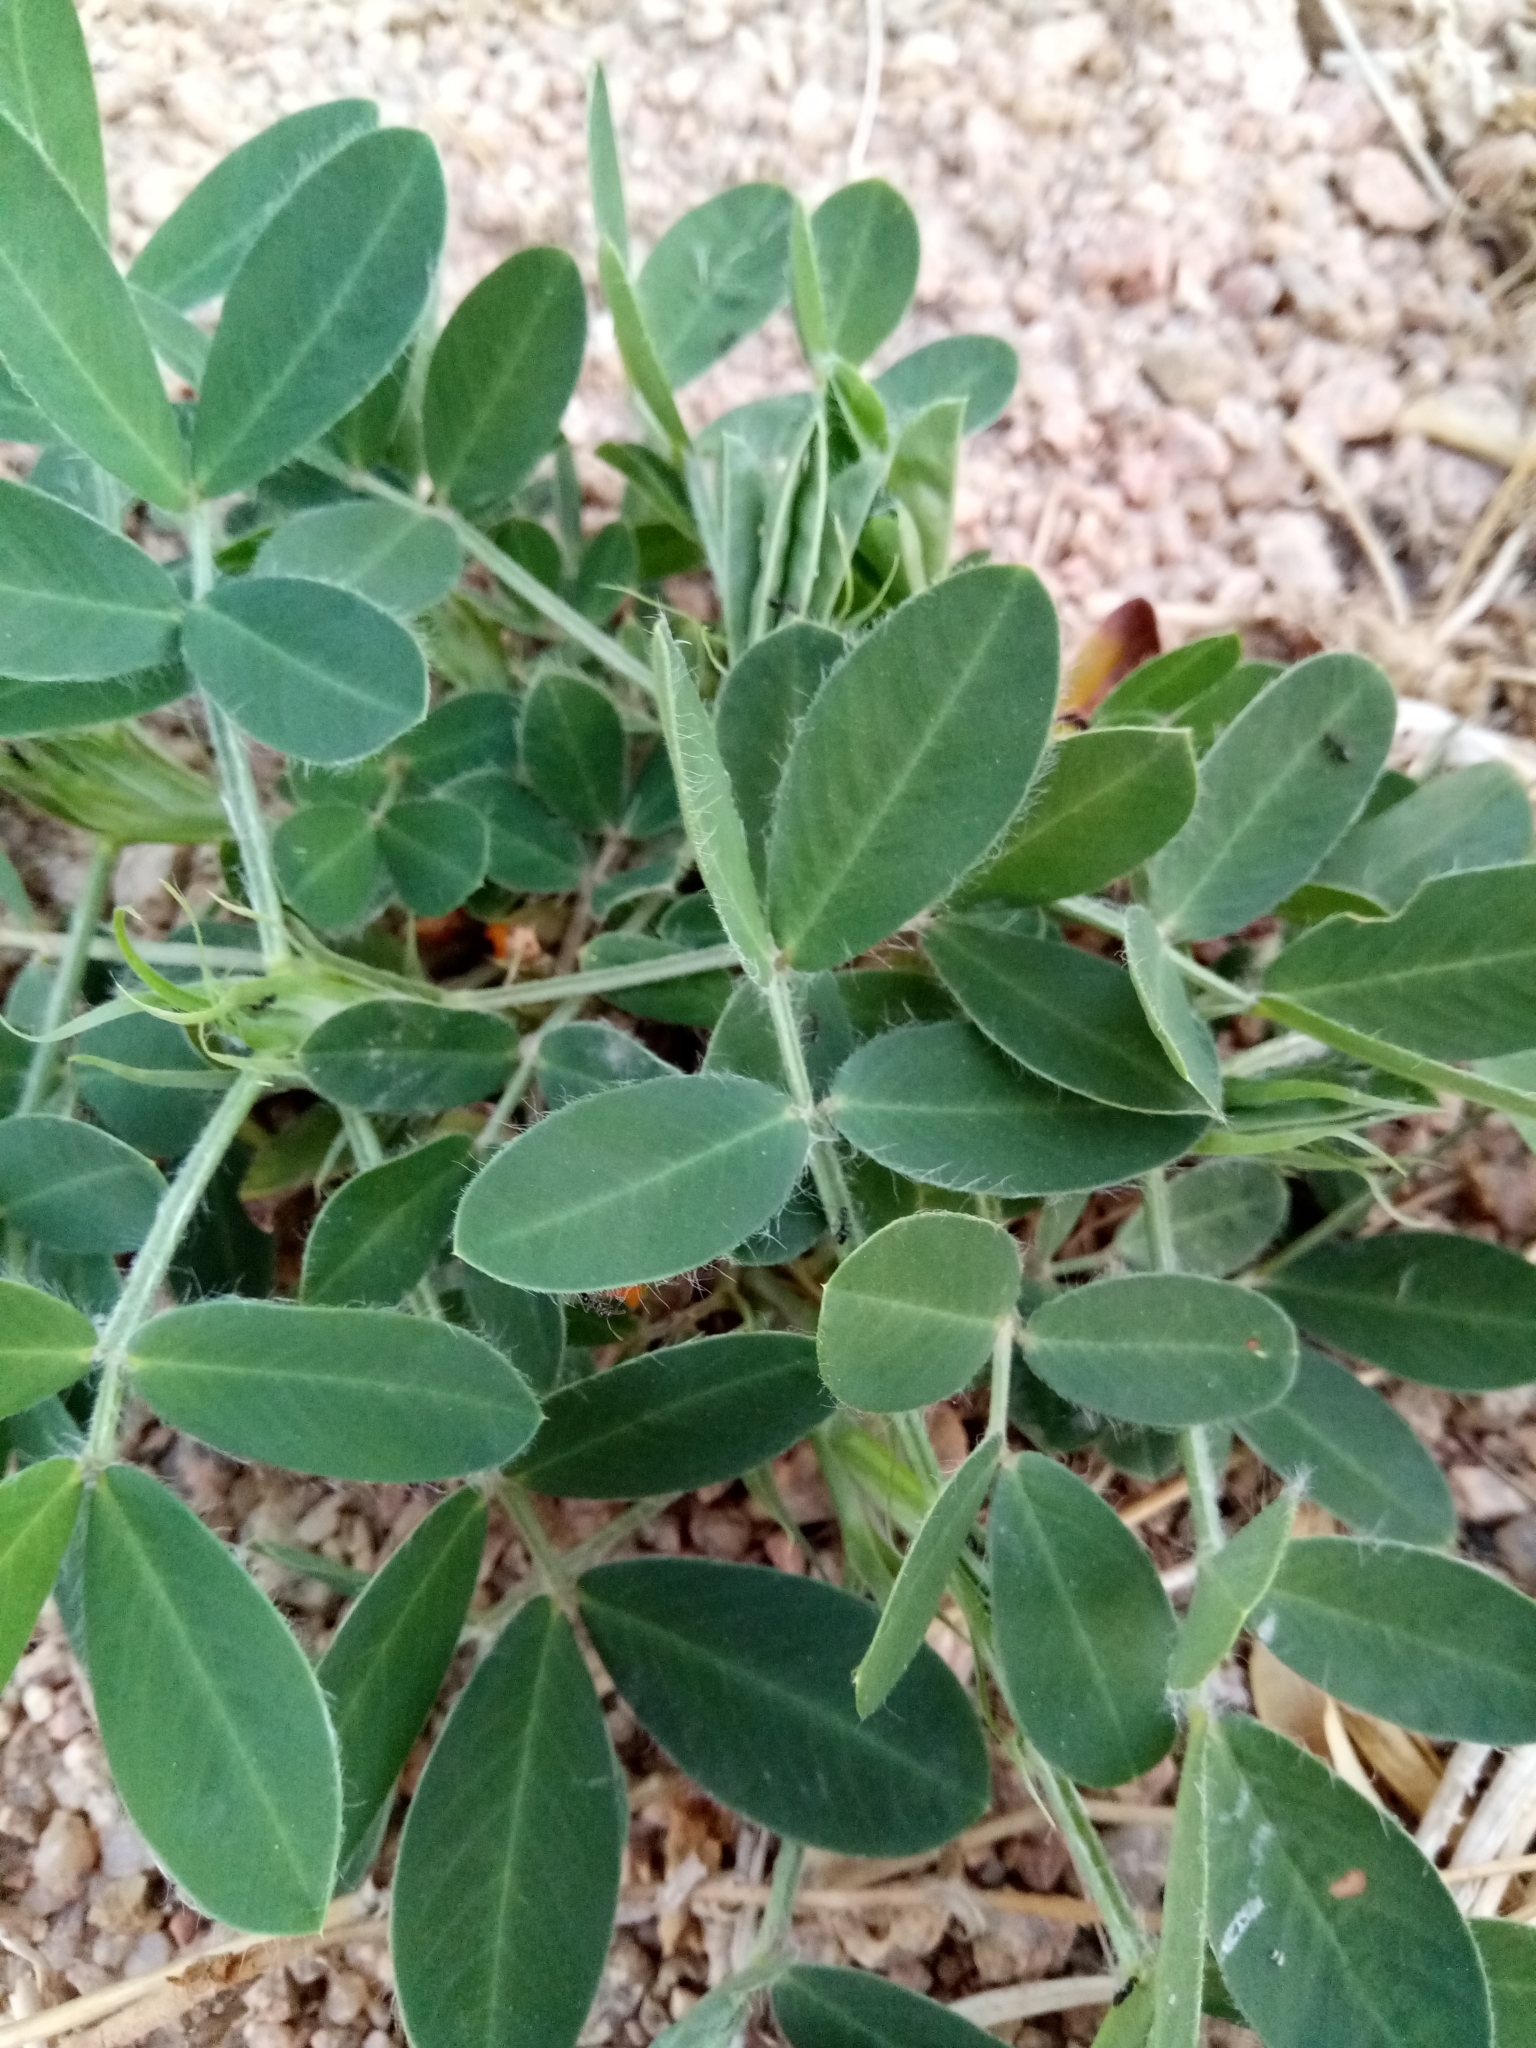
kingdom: Plantae
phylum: Tracheophyta
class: Magnoliopsida
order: Fabales
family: Fabaceae
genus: Arachis
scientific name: Arachis hypogaea
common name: Peanut
